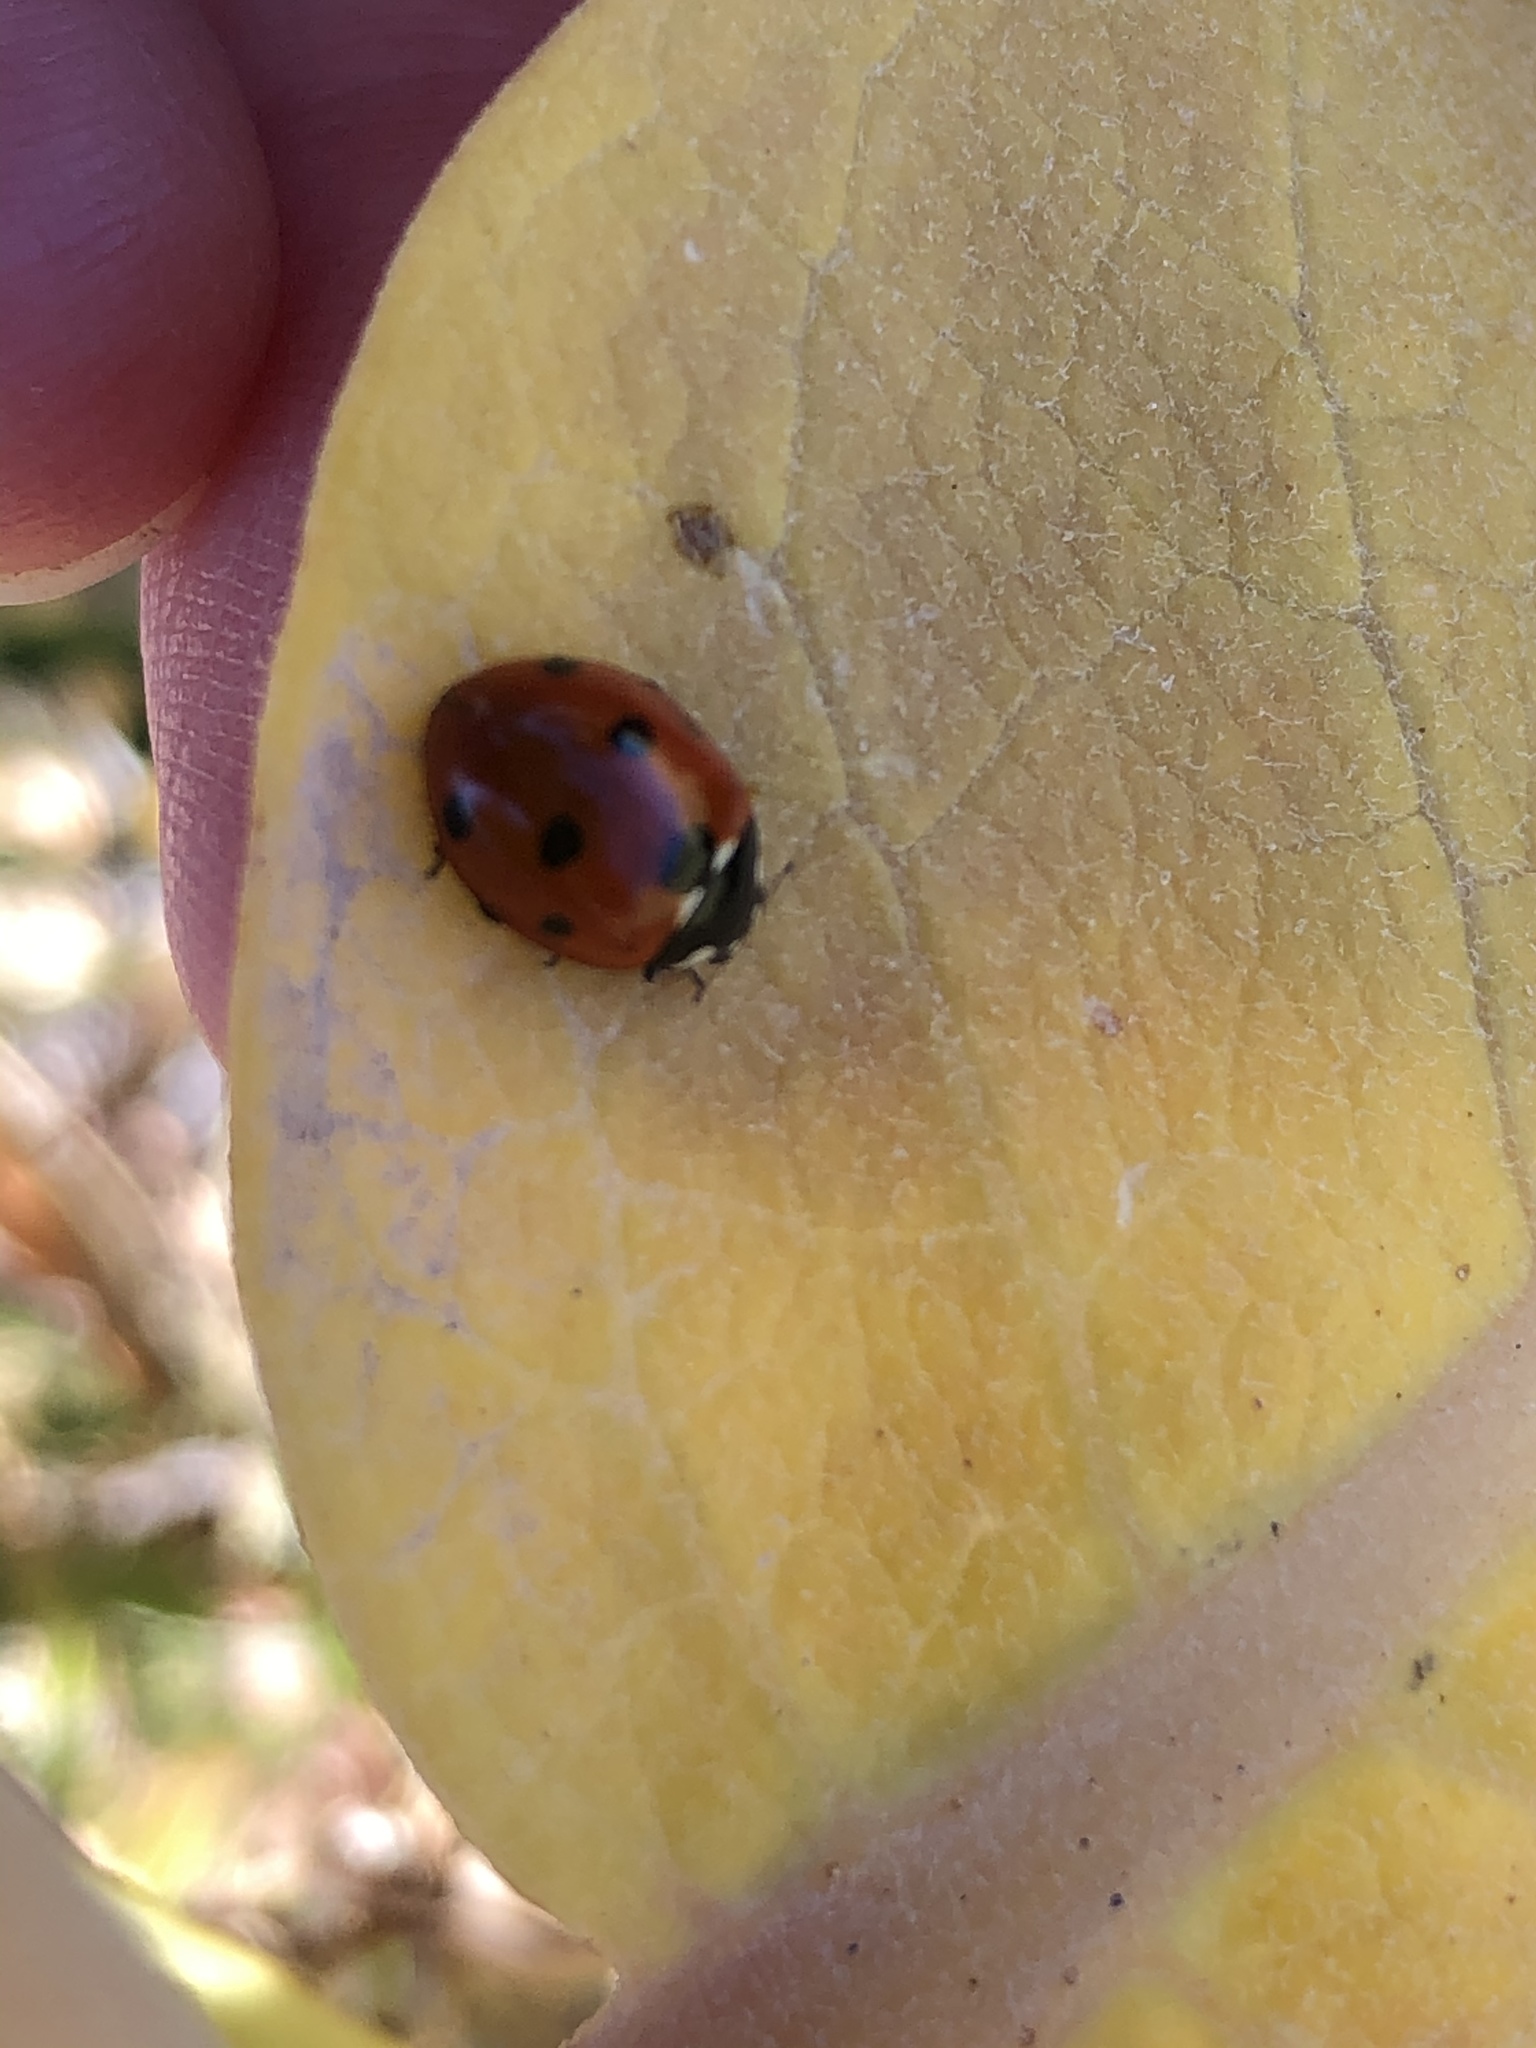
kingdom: Animalia
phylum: Arthropoda
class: Insecta
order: Coleoptera
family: Coccinellidae
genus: Coccinella
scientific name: Coccinella septempunctata
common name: Sevenspotted lady beetle
